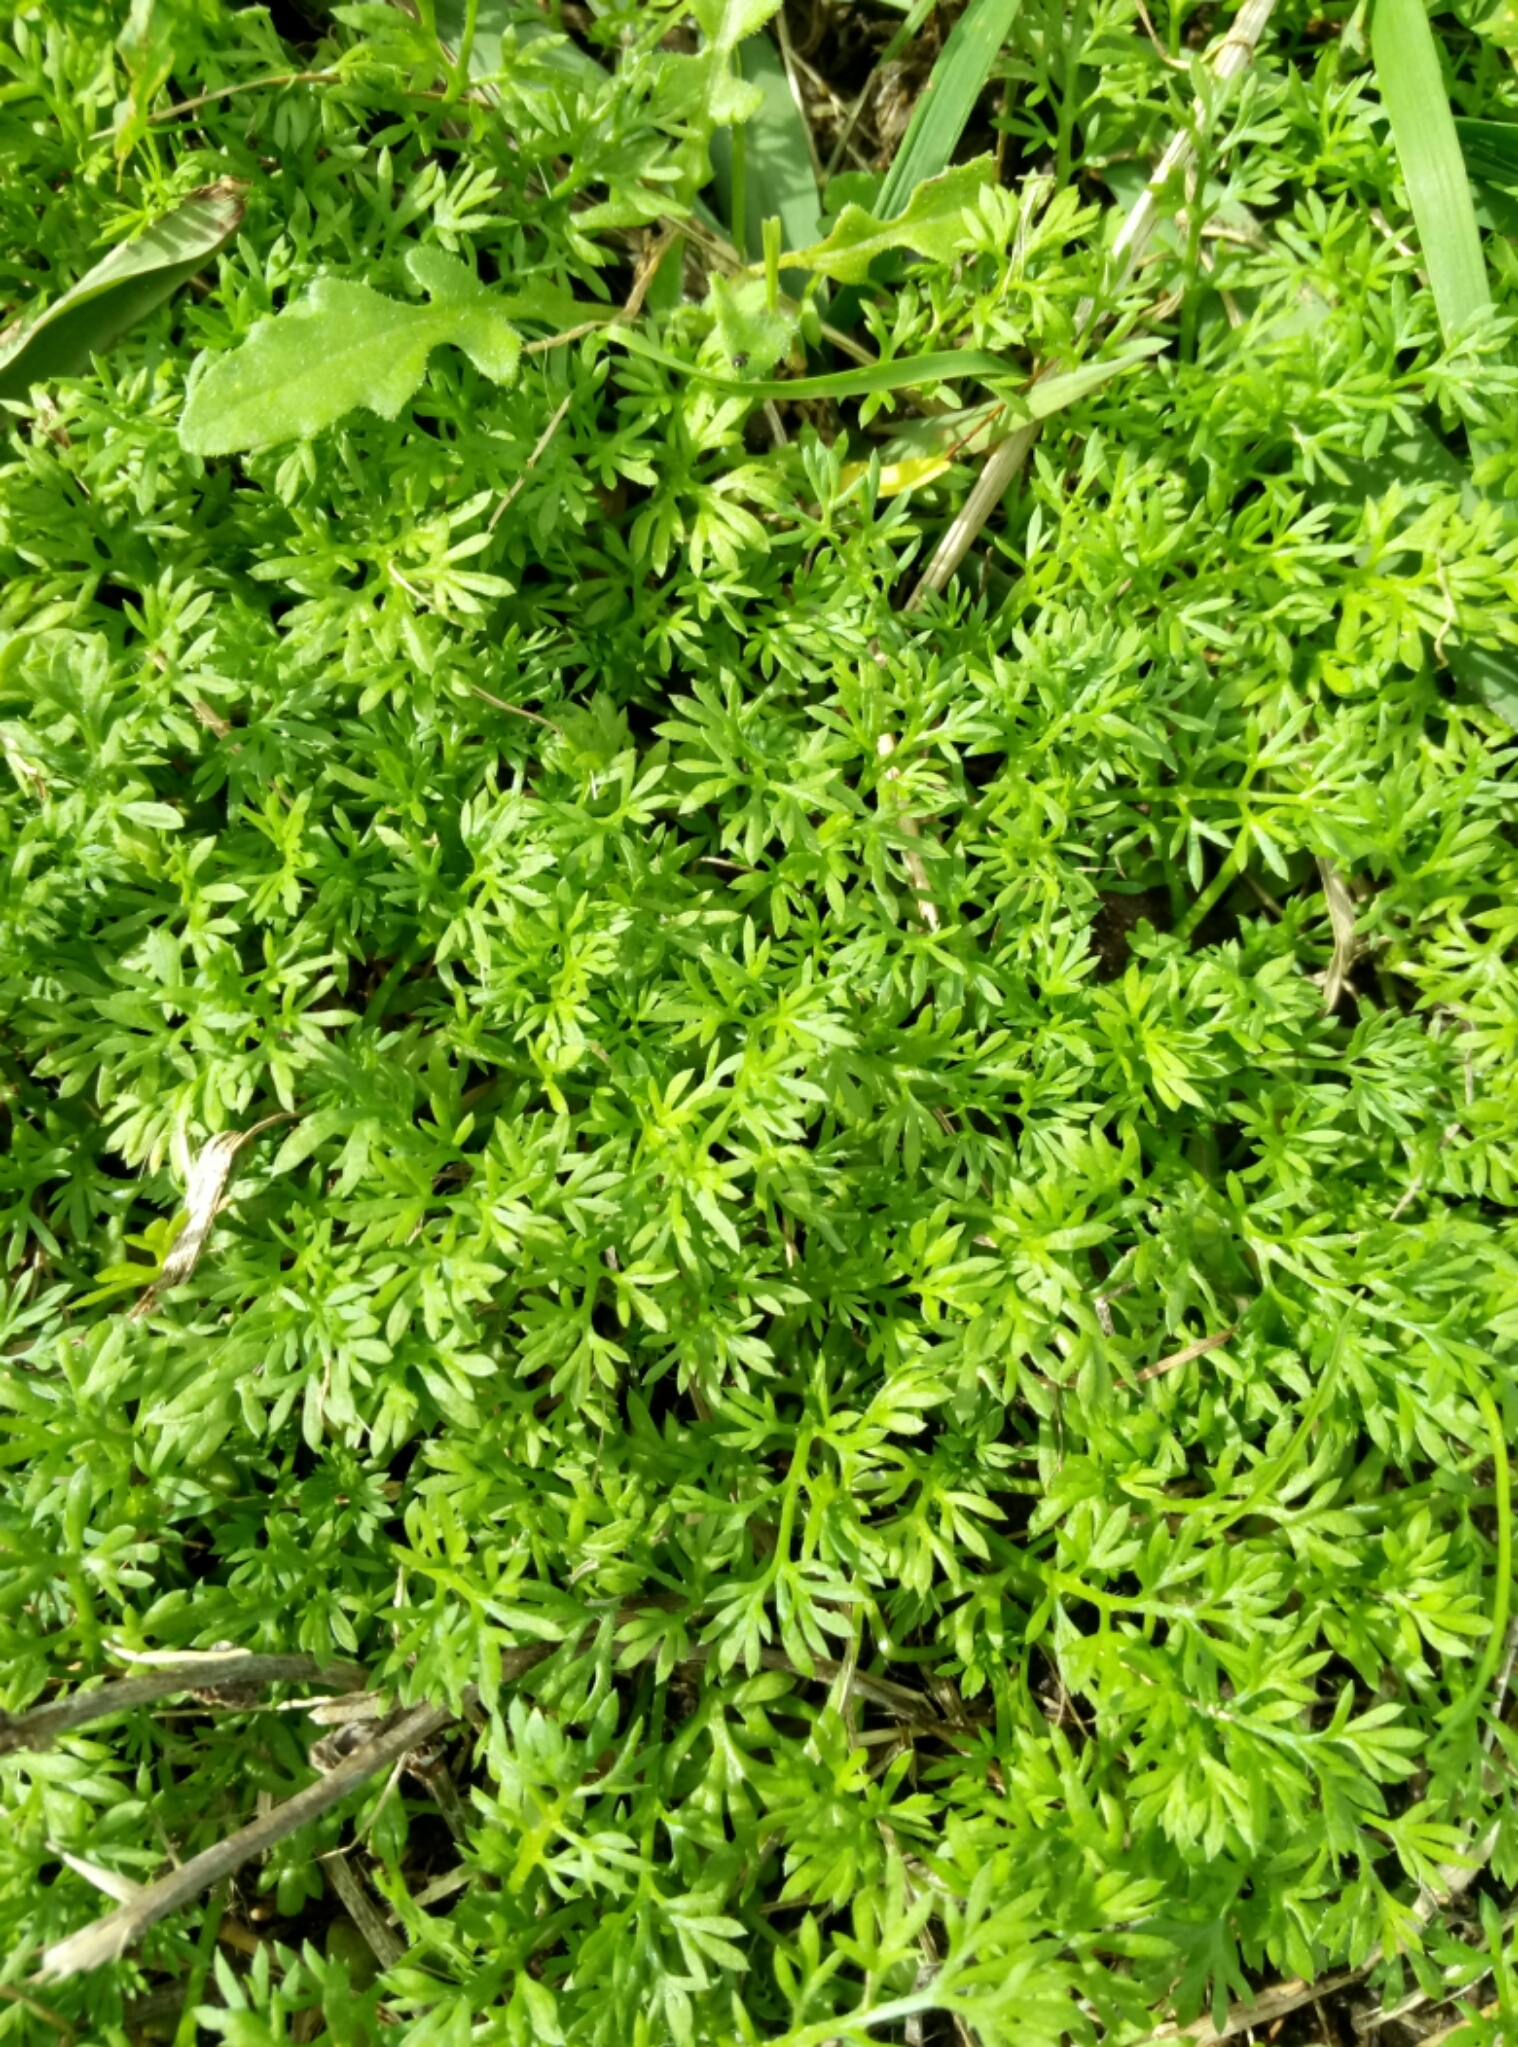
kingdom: Plantae
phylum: Tracheophyta
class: Magnoliopsida
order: Asterales
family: Asteraceae
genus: Soliva
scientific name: Soliva sessilis
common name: Field burrweed
